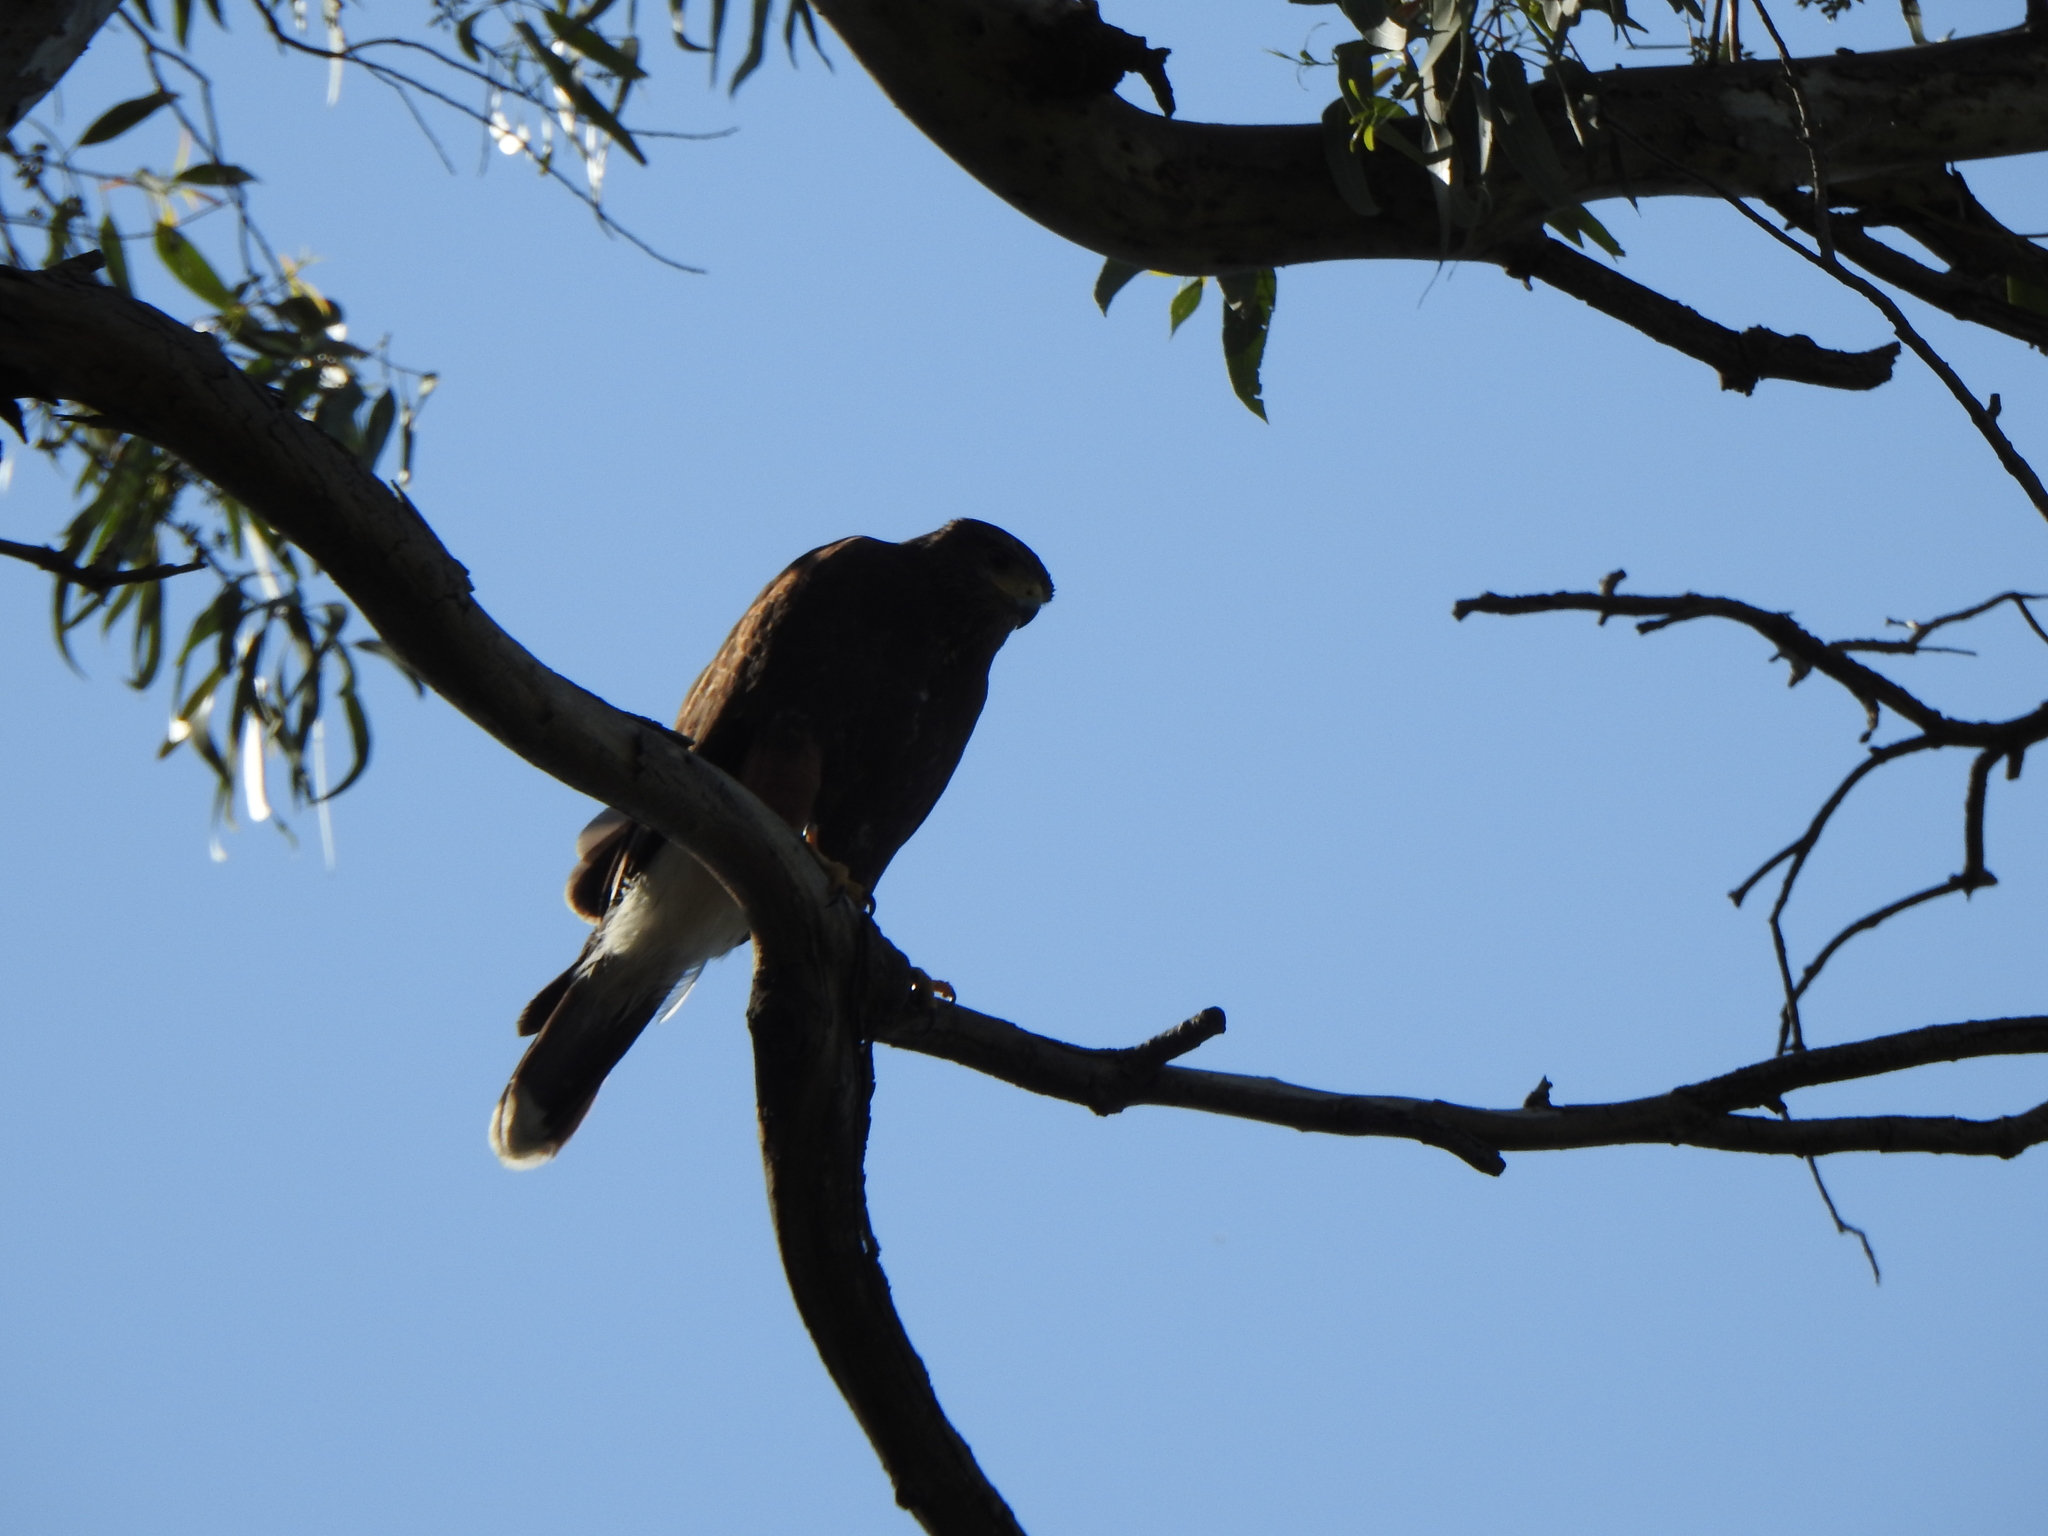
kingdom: Animalia
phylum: Chordata
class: Aves
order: Accipitriformes
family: Accipitridae
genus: Parabuteo
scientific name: Parabuteo unicinctus
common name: Harris's hawk
